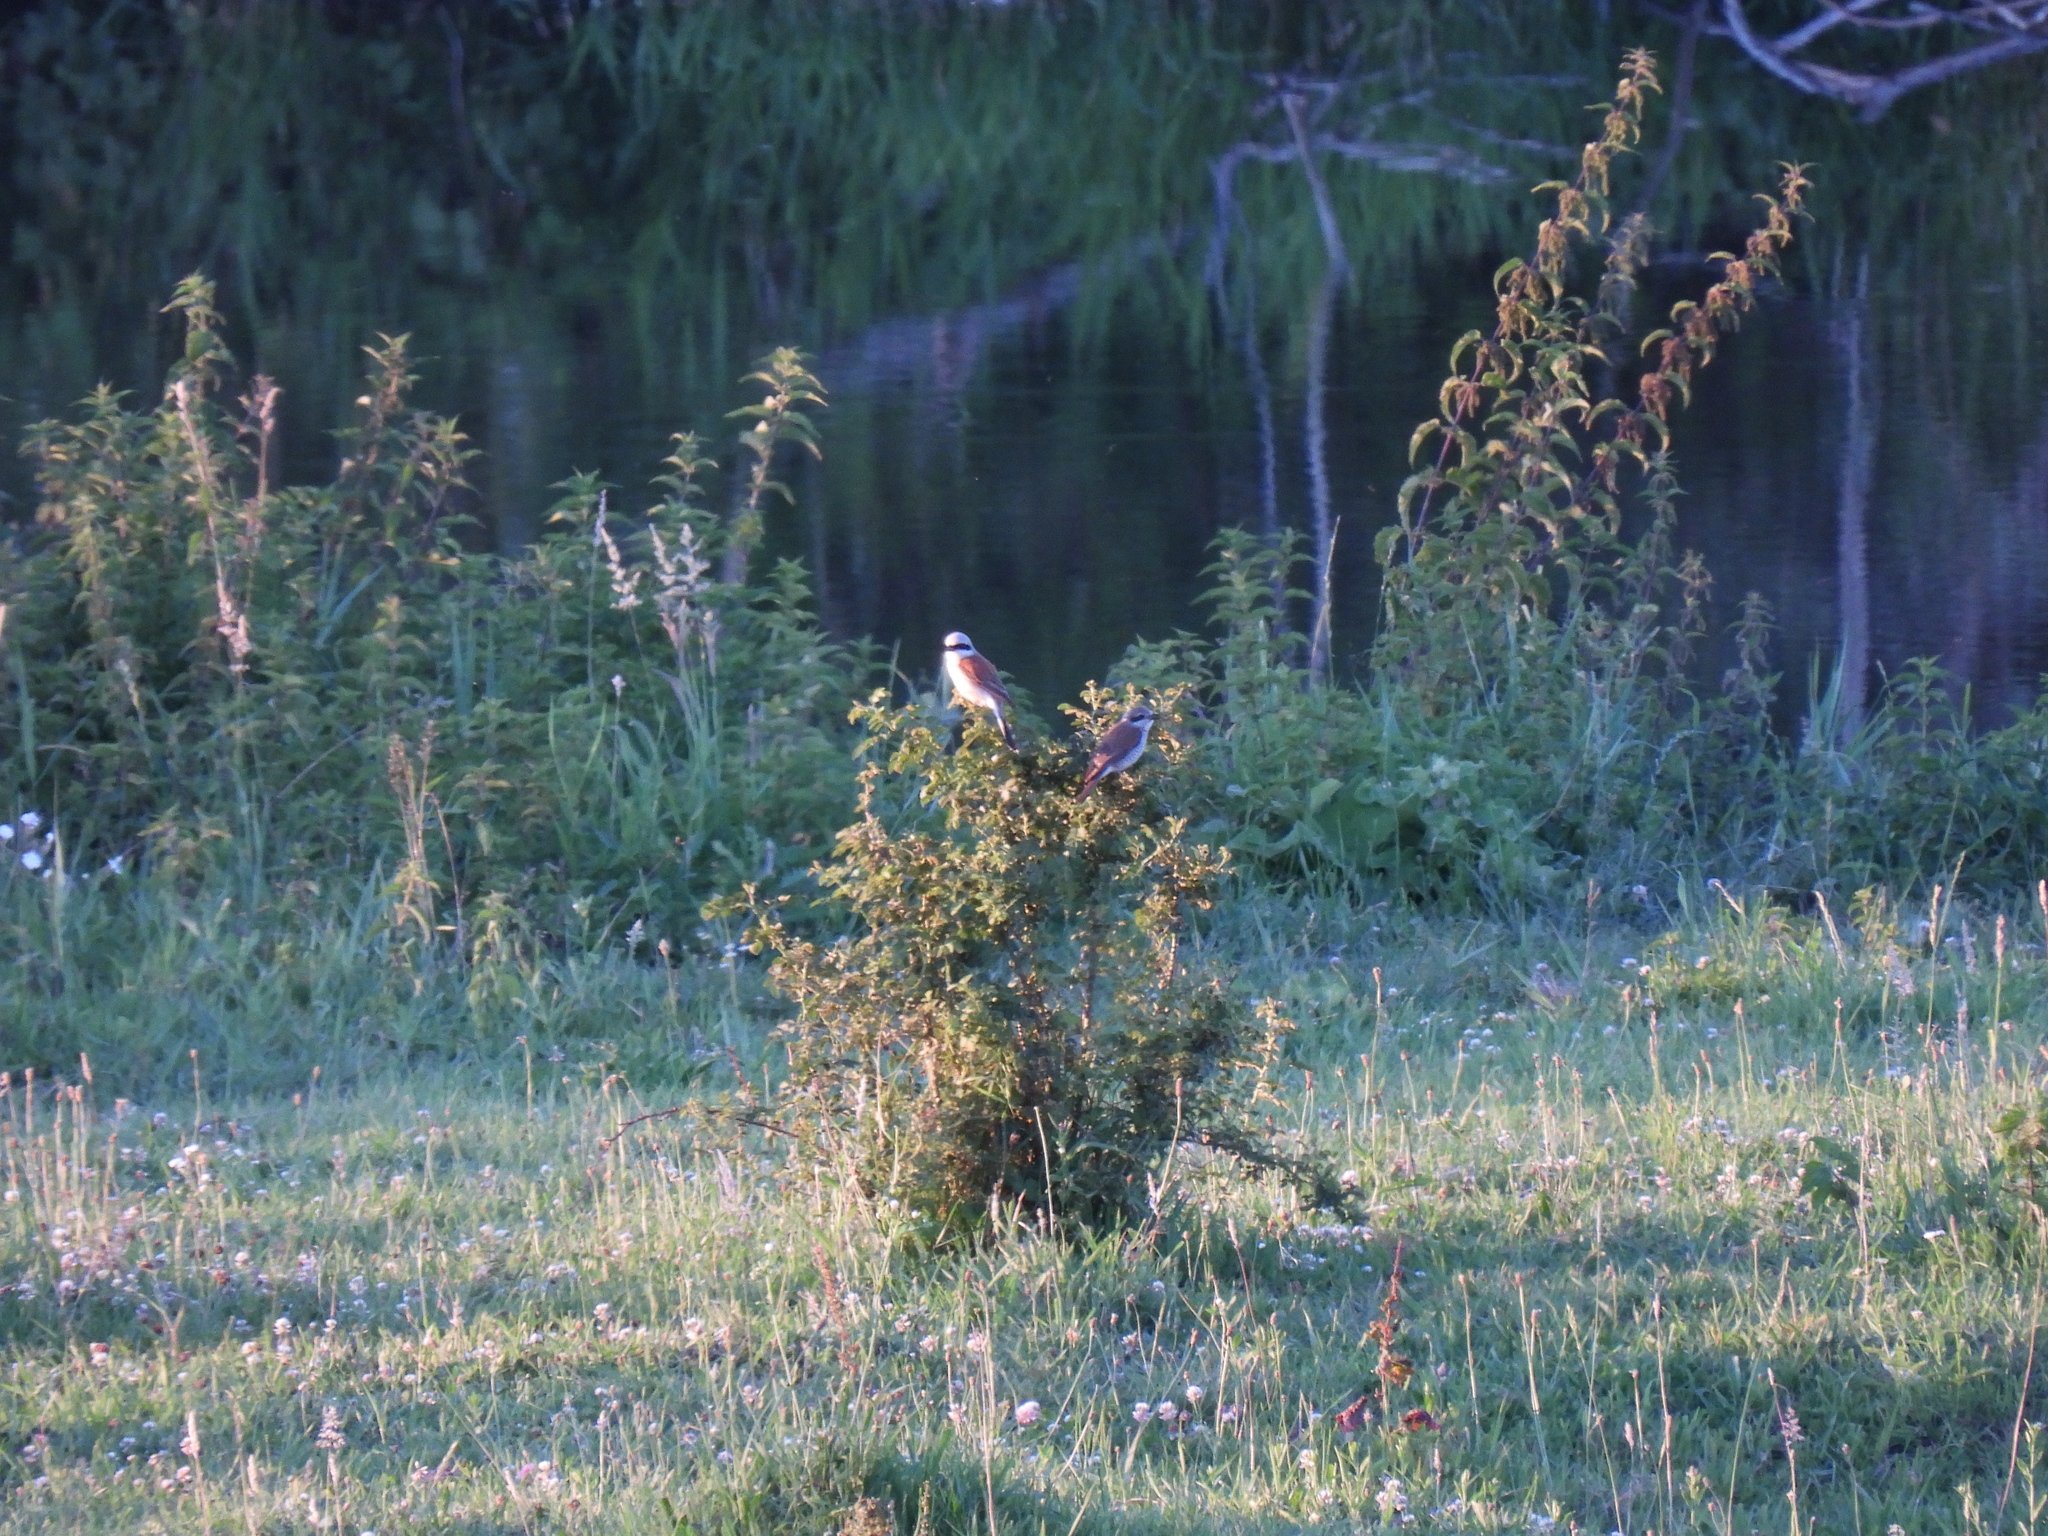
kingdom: Animalia
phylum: Chordata
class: Aves
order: Passeriformes
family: Laniidae
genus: Lanius
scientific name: Lanius collurio
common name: Red-backed shrike
